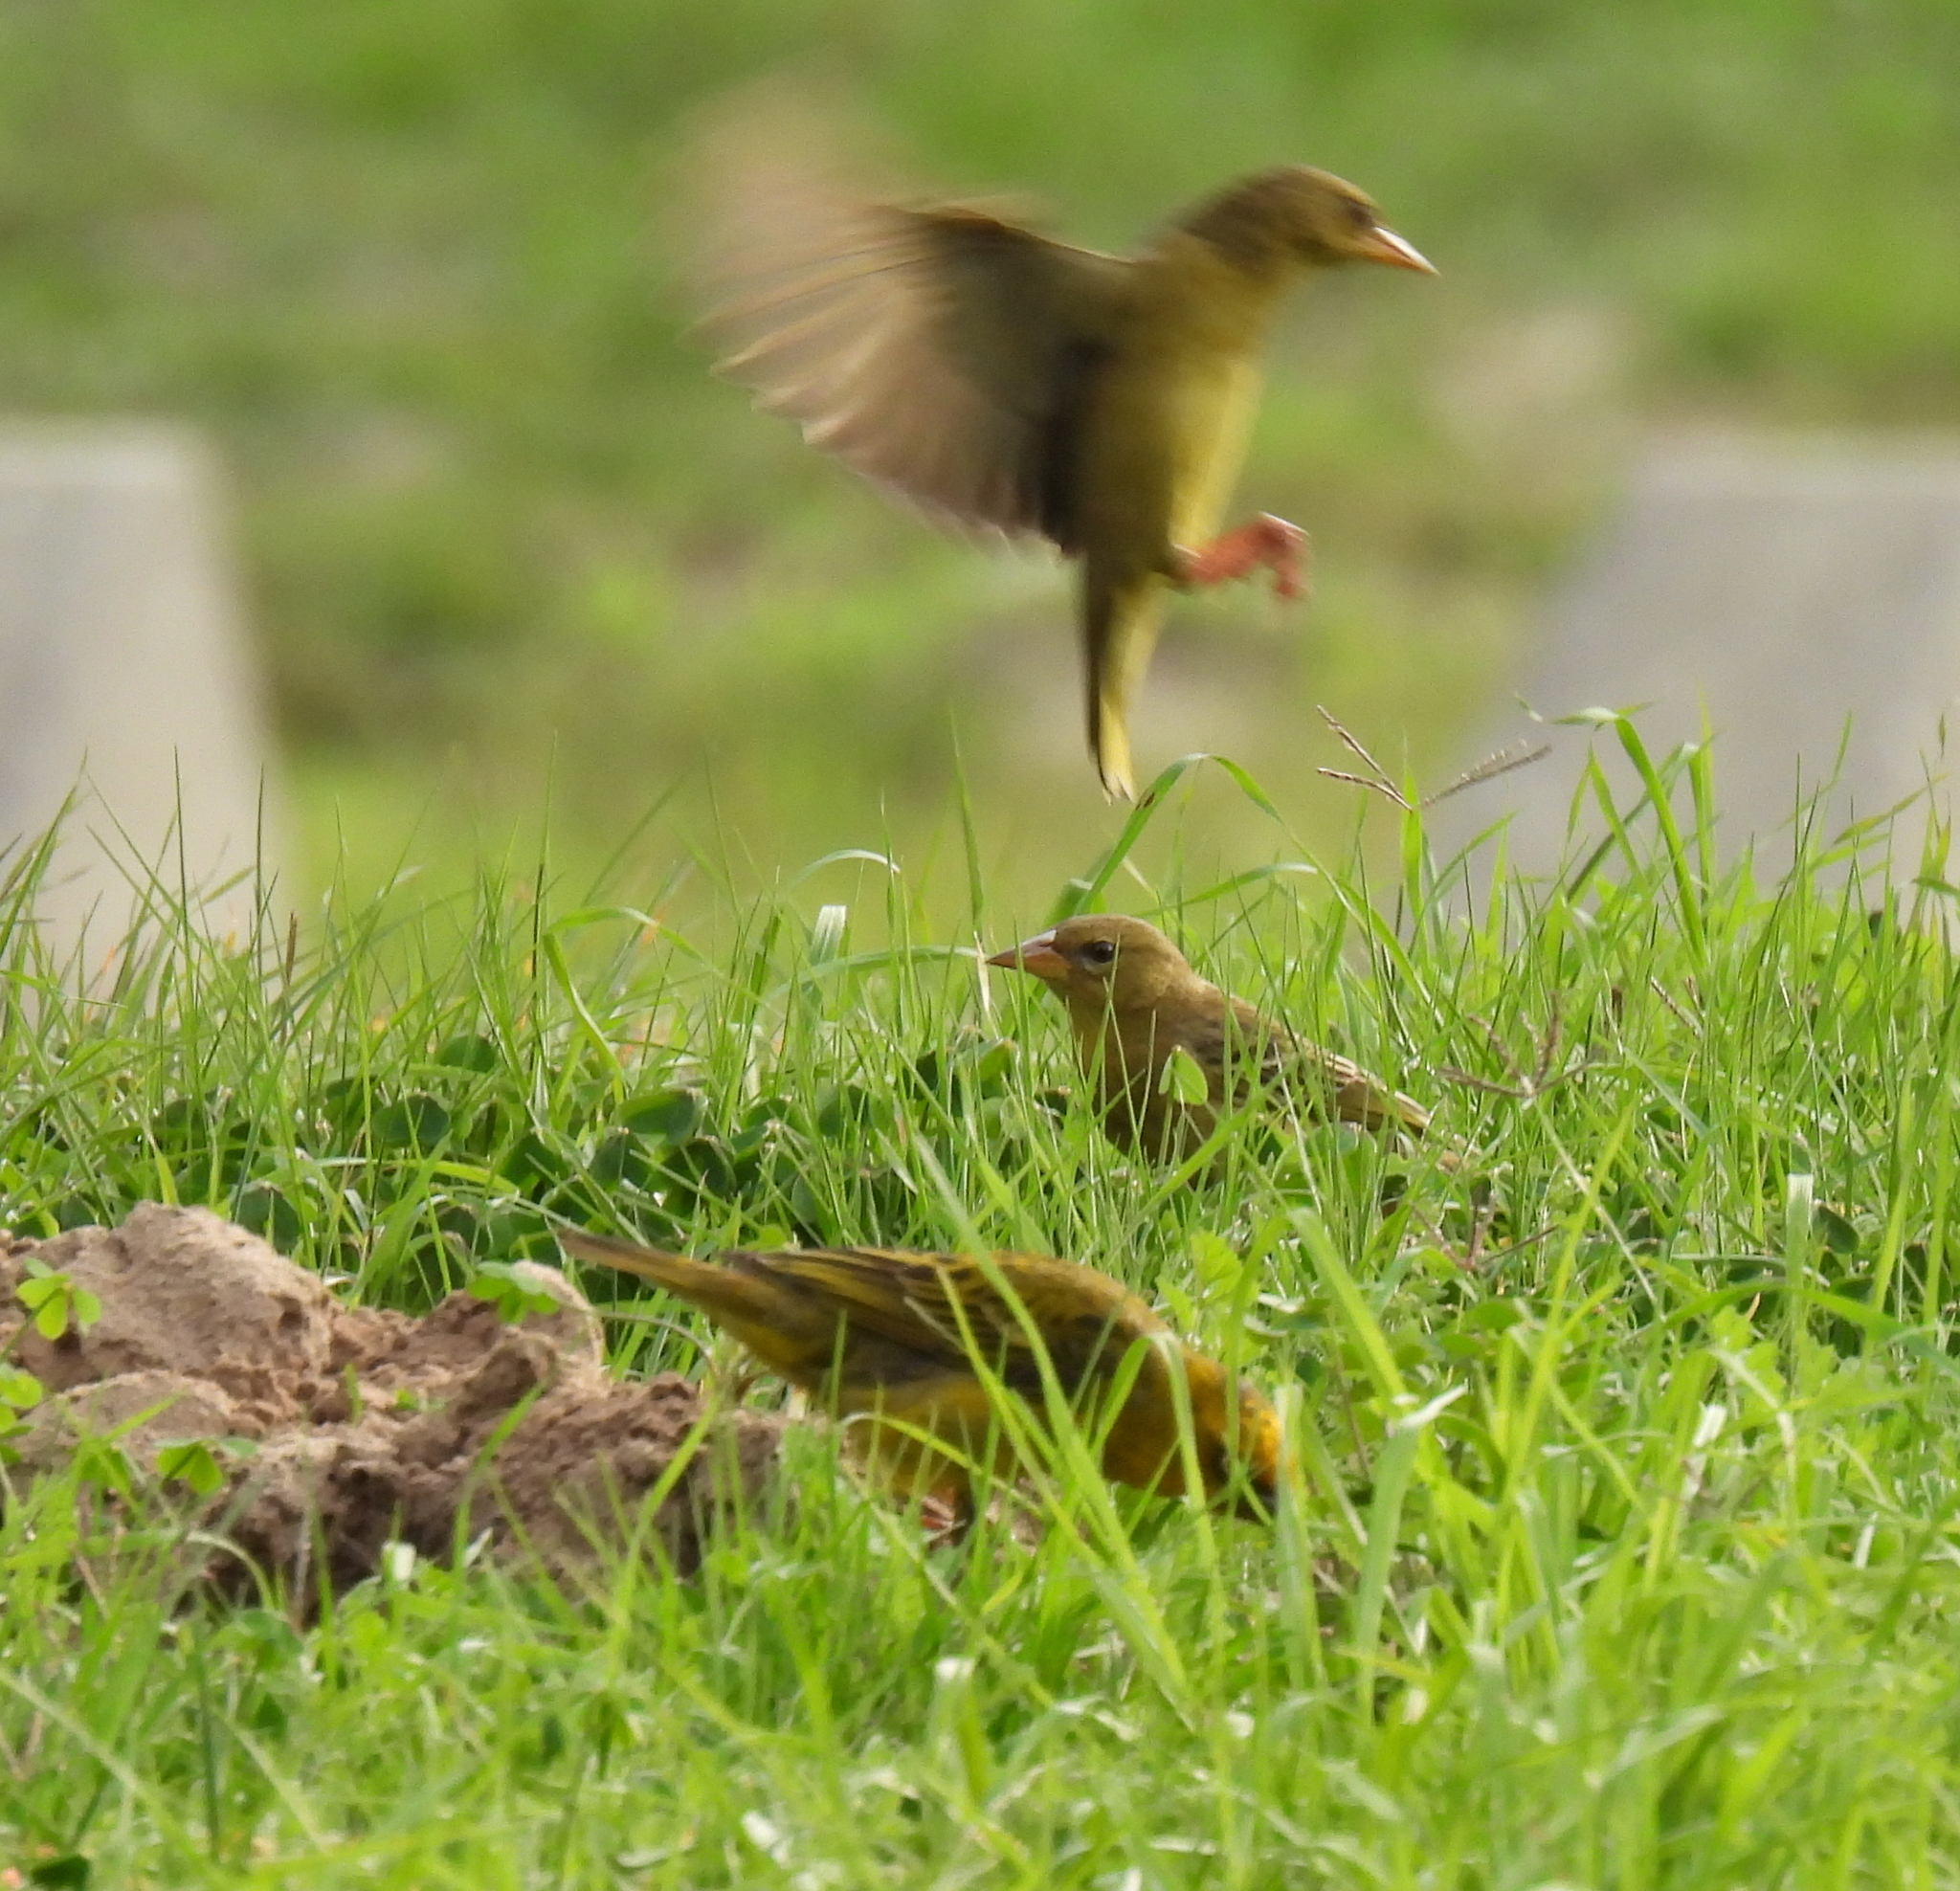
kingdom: Animalia
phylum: Chordata
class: Aves
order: Passeriformes
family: Ploceidae
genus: Ploceus
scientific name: Ploceus capensis
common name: Cape weaver
